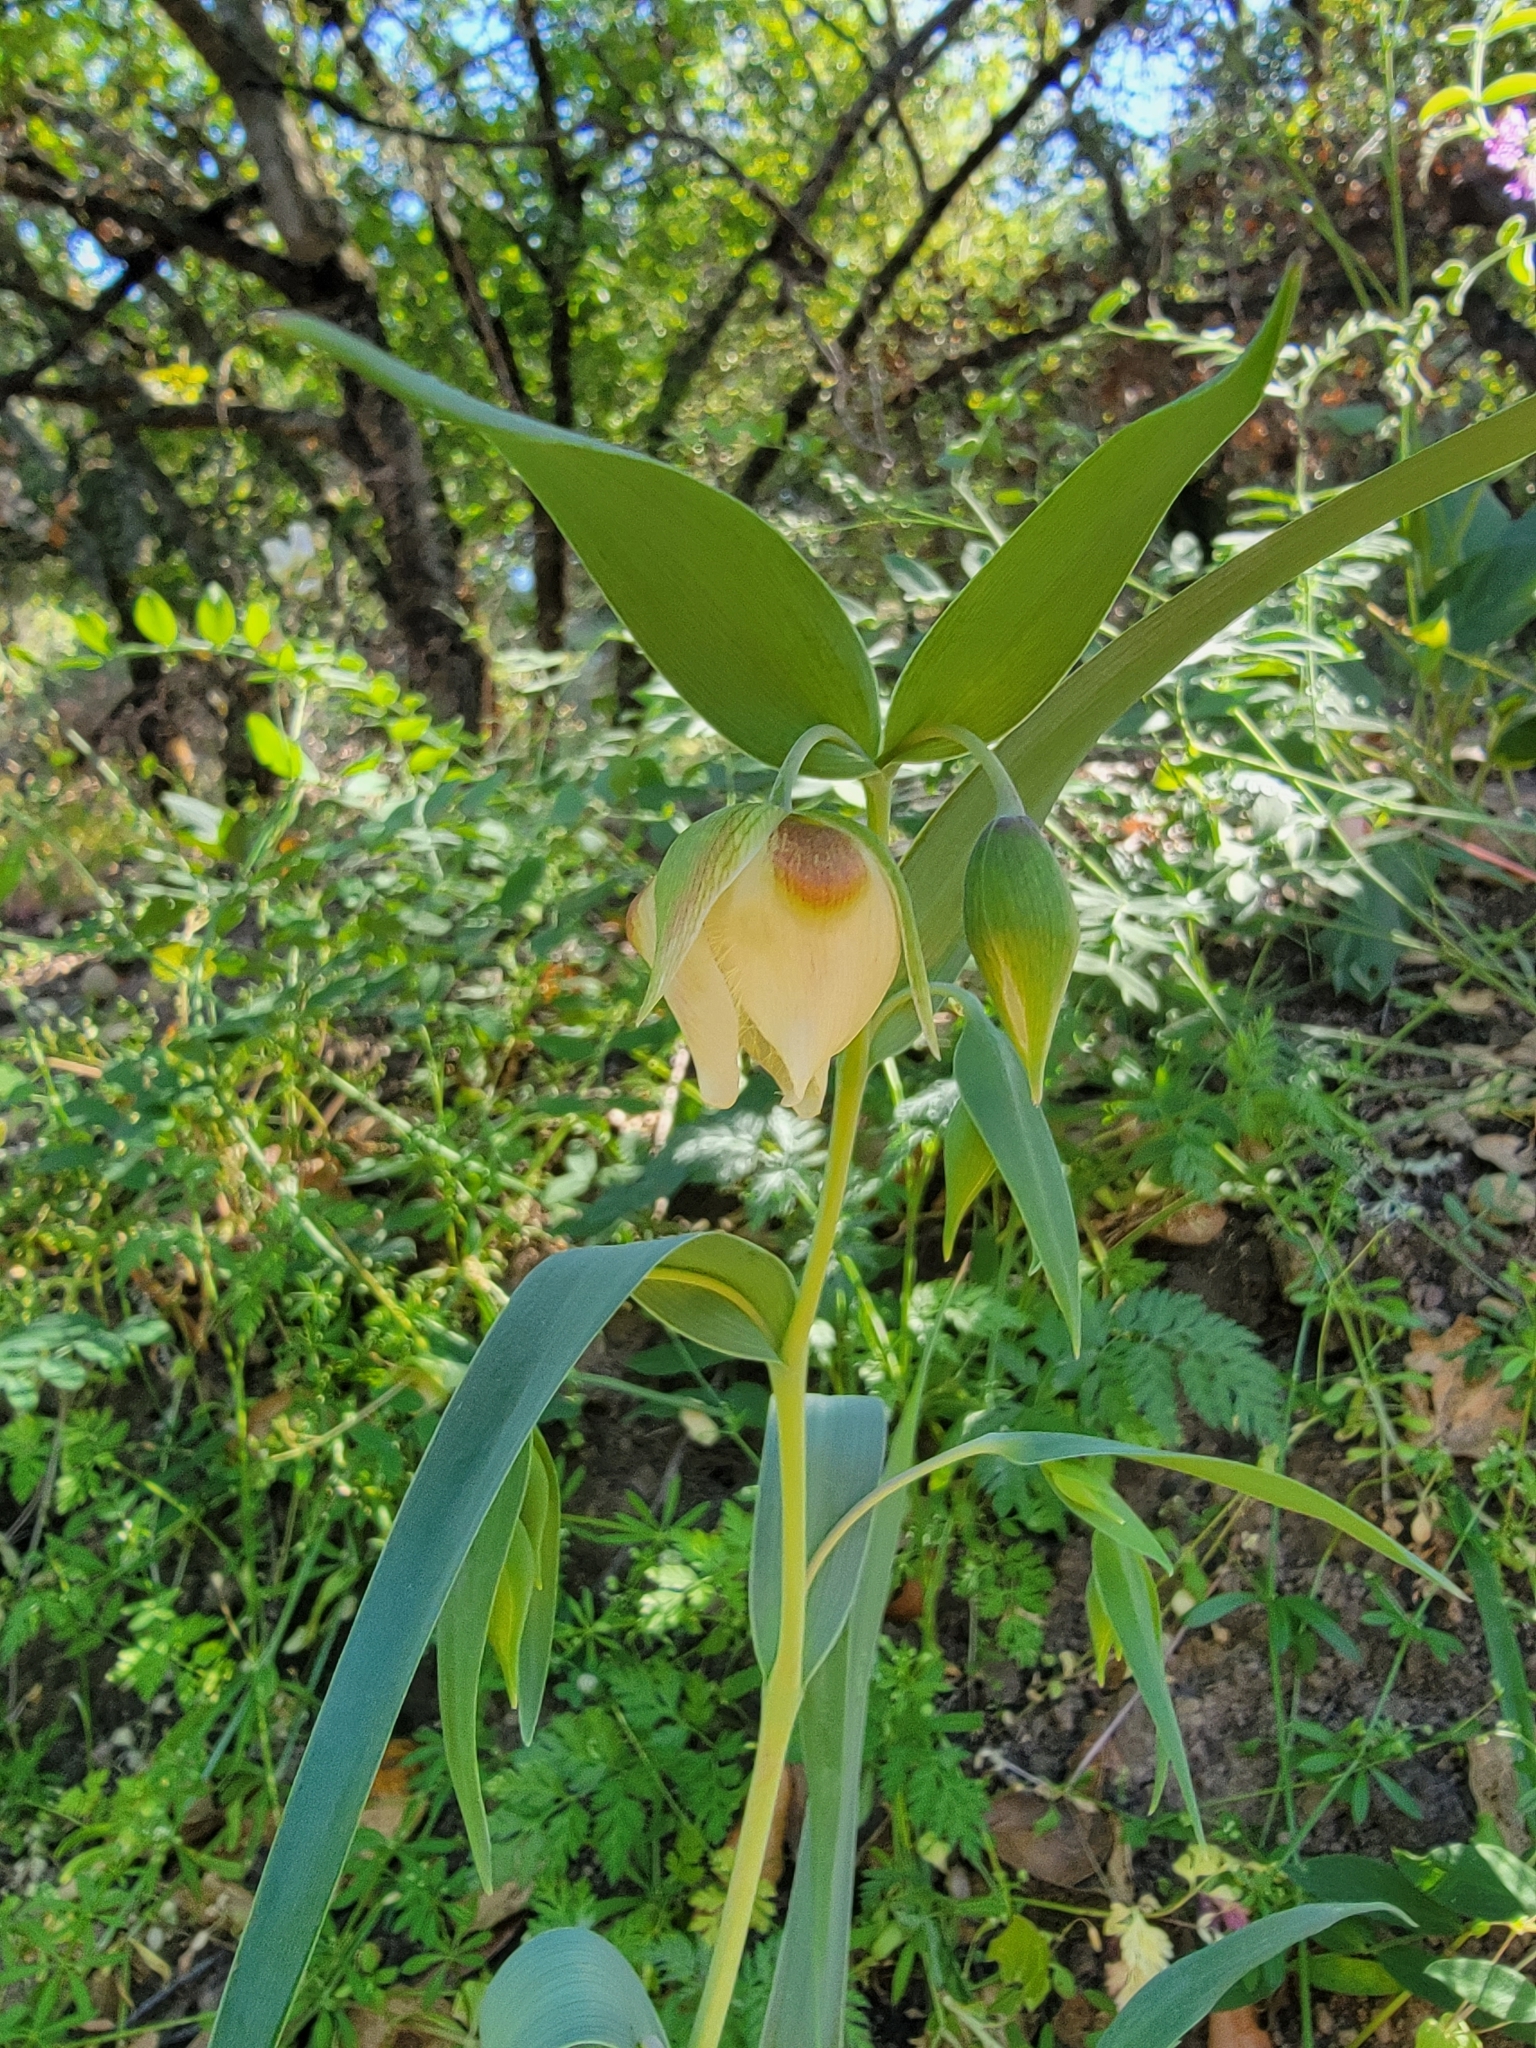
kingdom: Plantae
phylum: Tracheophyta
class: Liliopsida
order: Liliales
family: Liliaceae
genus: Calochortus
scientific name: Calochortus albus
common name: Fairy-lantern
